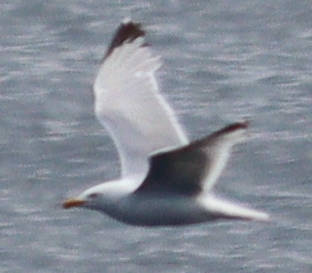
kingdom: Animalia
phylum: Chordata
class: Aves
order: Charadriiformes
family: Laridae
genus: Larus
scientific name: Larus argentatus
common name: Herring gull
